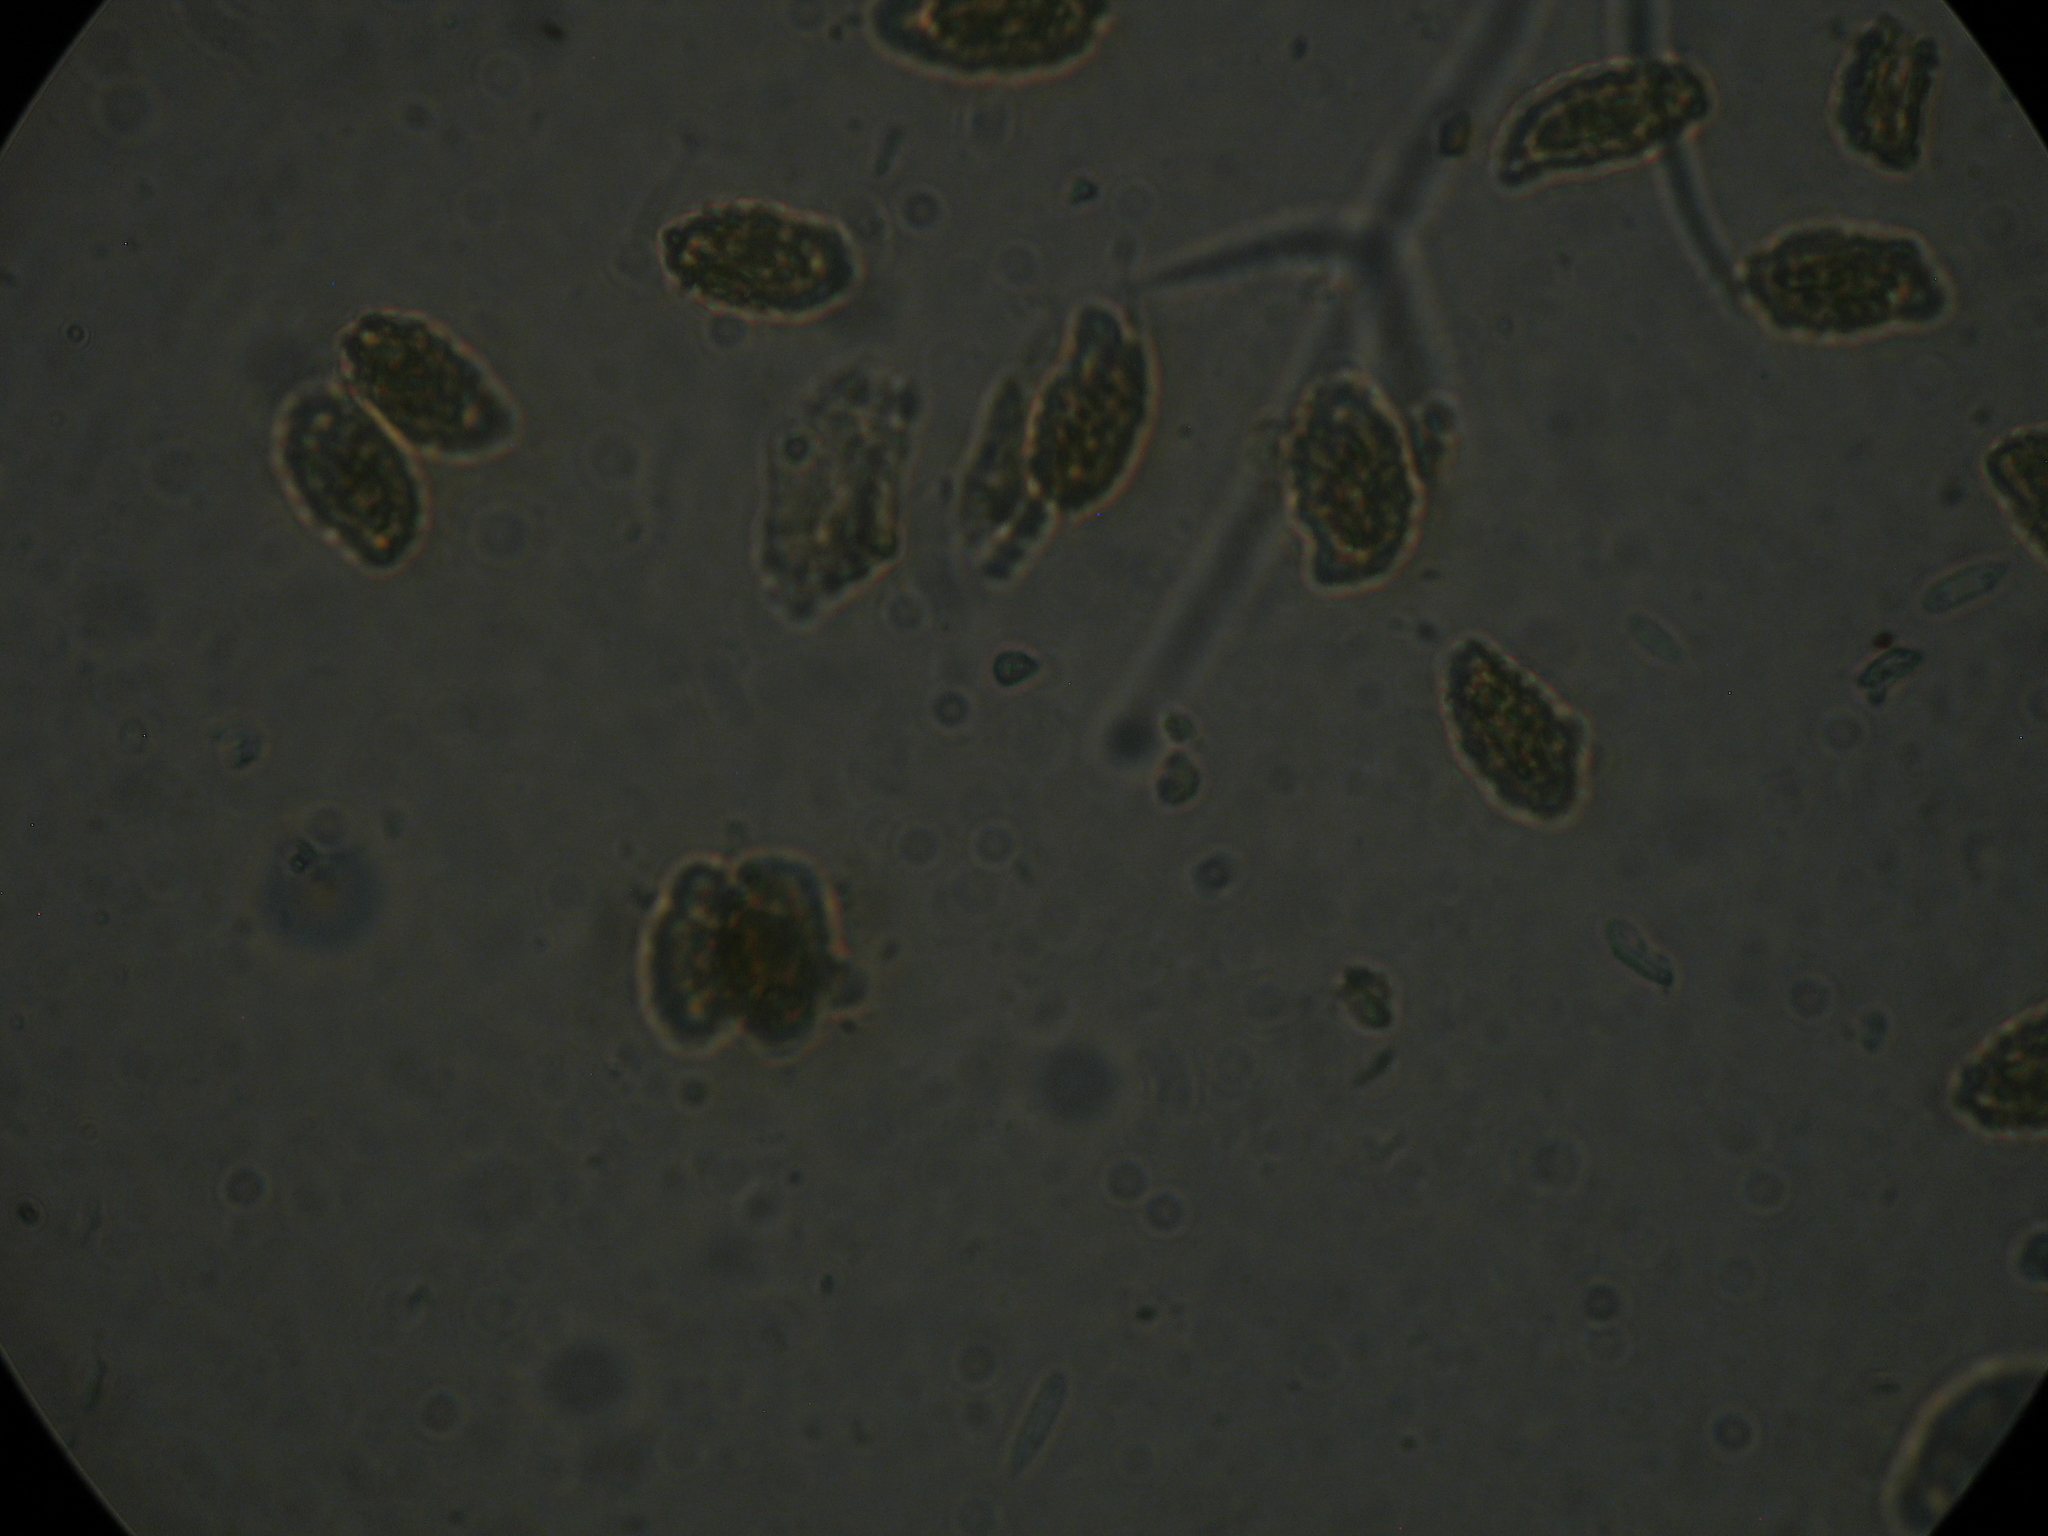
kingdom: Fungi
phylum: Basidiomycota
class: Agaricomycetes
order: Gomphales
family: Gomphaceae
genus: Phaeoclavulina
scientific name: Phaeoclavulina viridis
